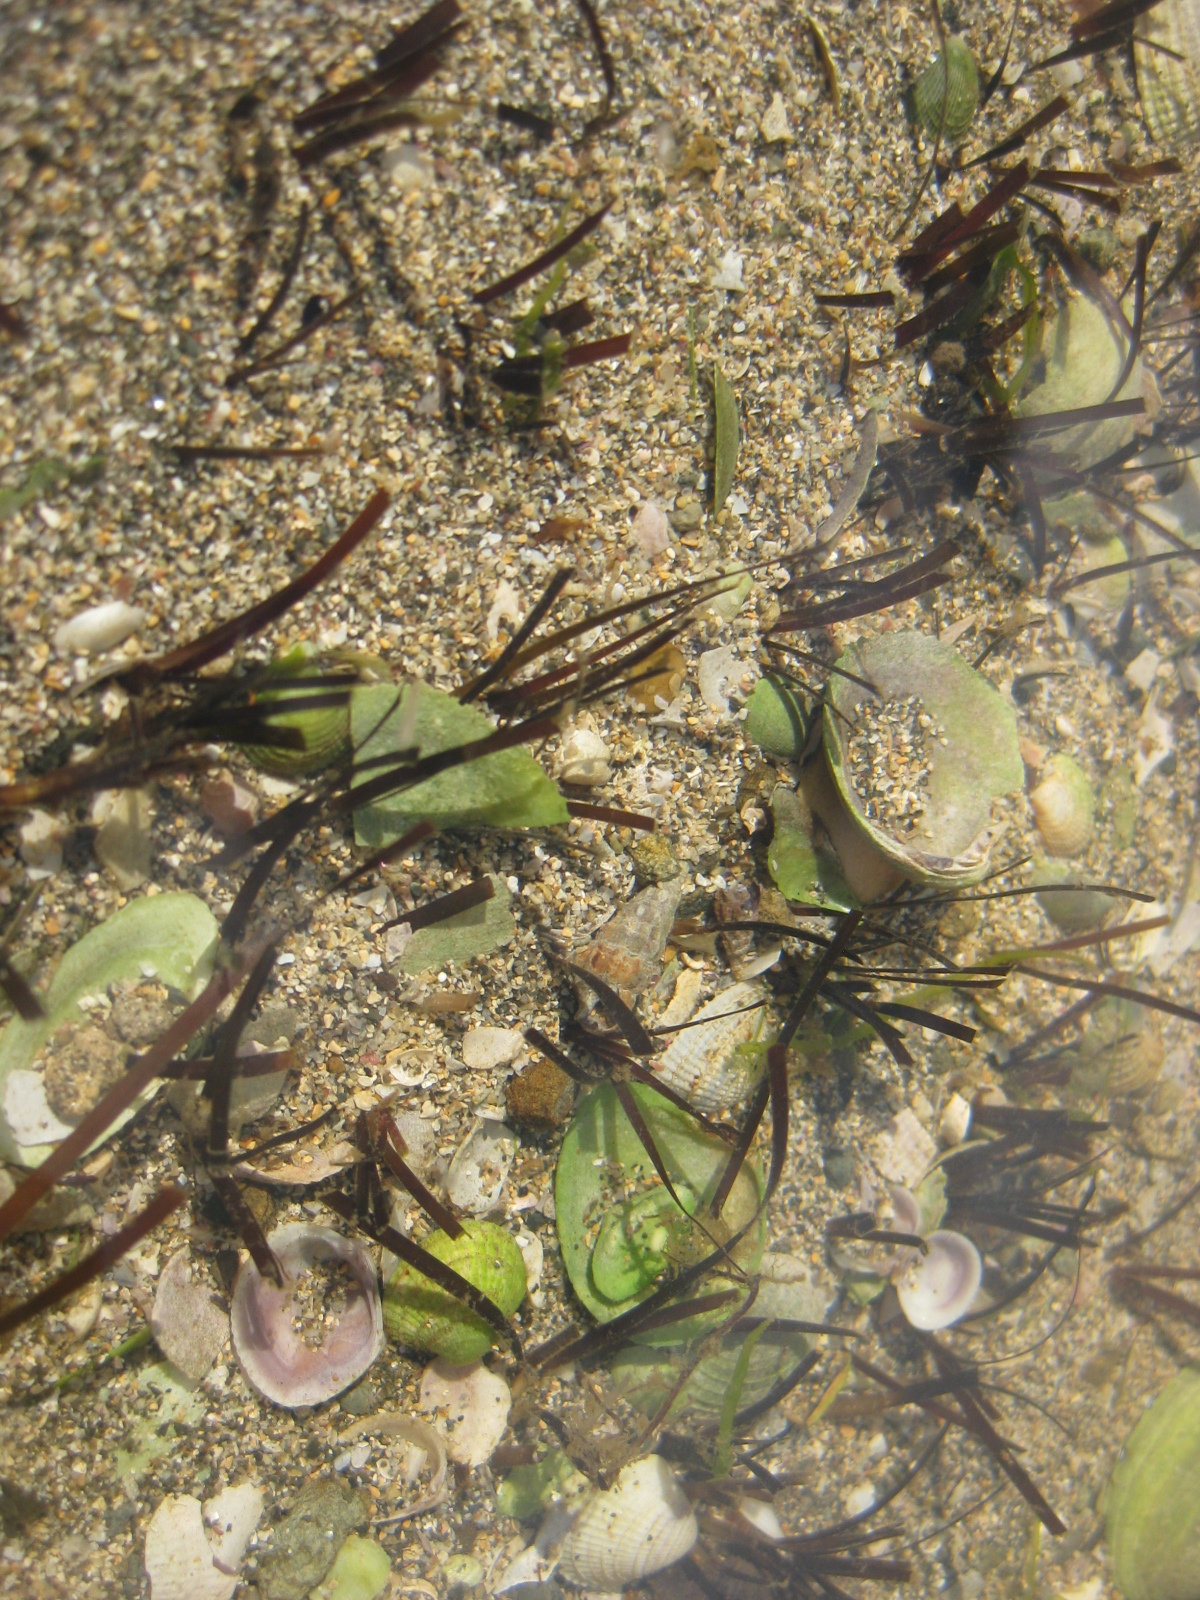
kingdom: Plantae
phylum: Tracheophyta
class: Liliopsida
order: Alismatales
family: Zosteraceae
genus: Zostera
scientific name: Zostera novazelandica
